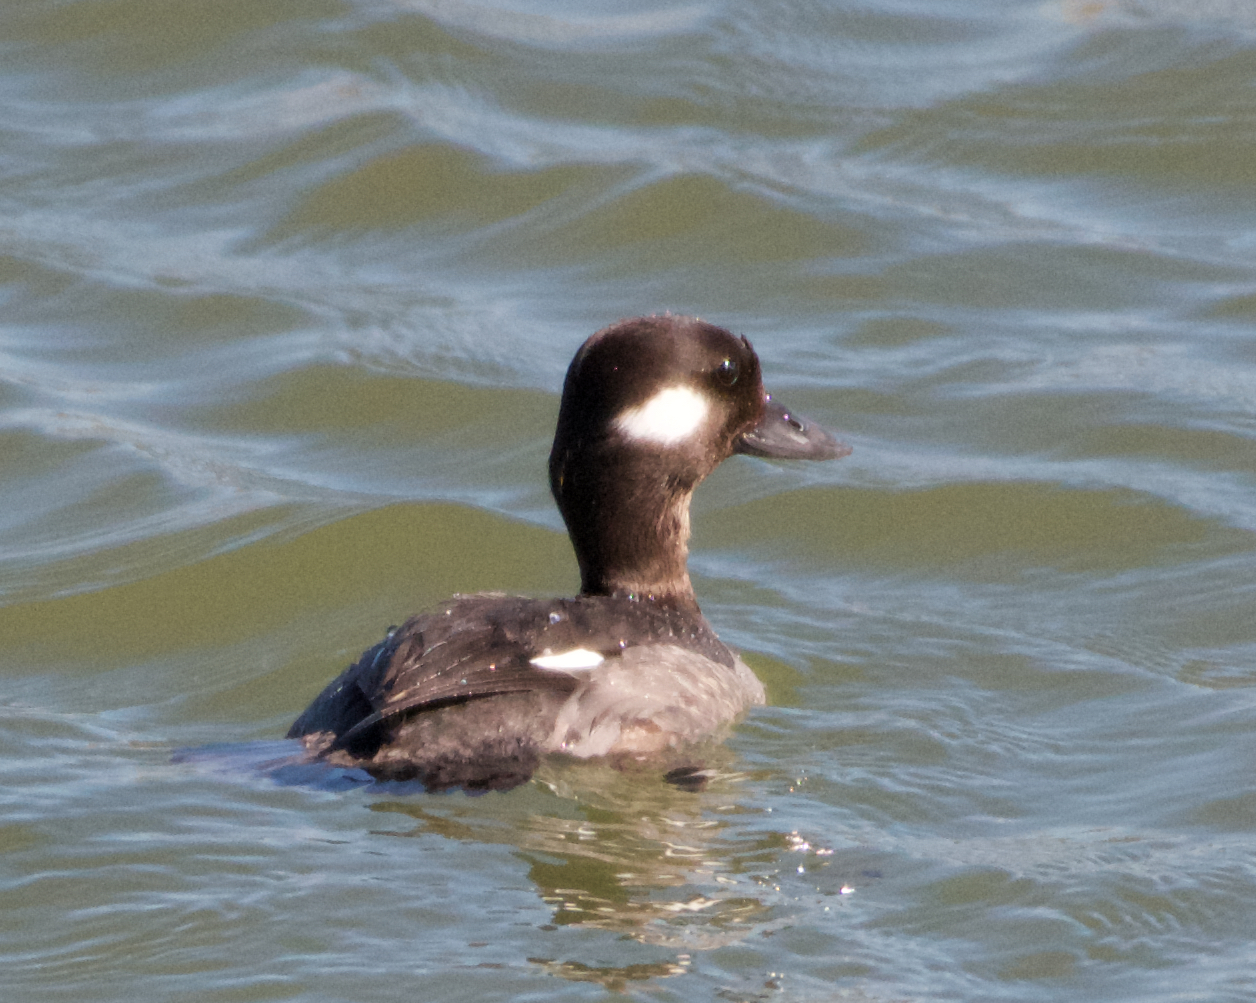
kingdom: Animalia
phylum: Chordata
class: Aves
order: Anseriformes
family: Anatidae
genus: Bucephala
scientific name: Bucephala albeola
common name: Bufflehead
